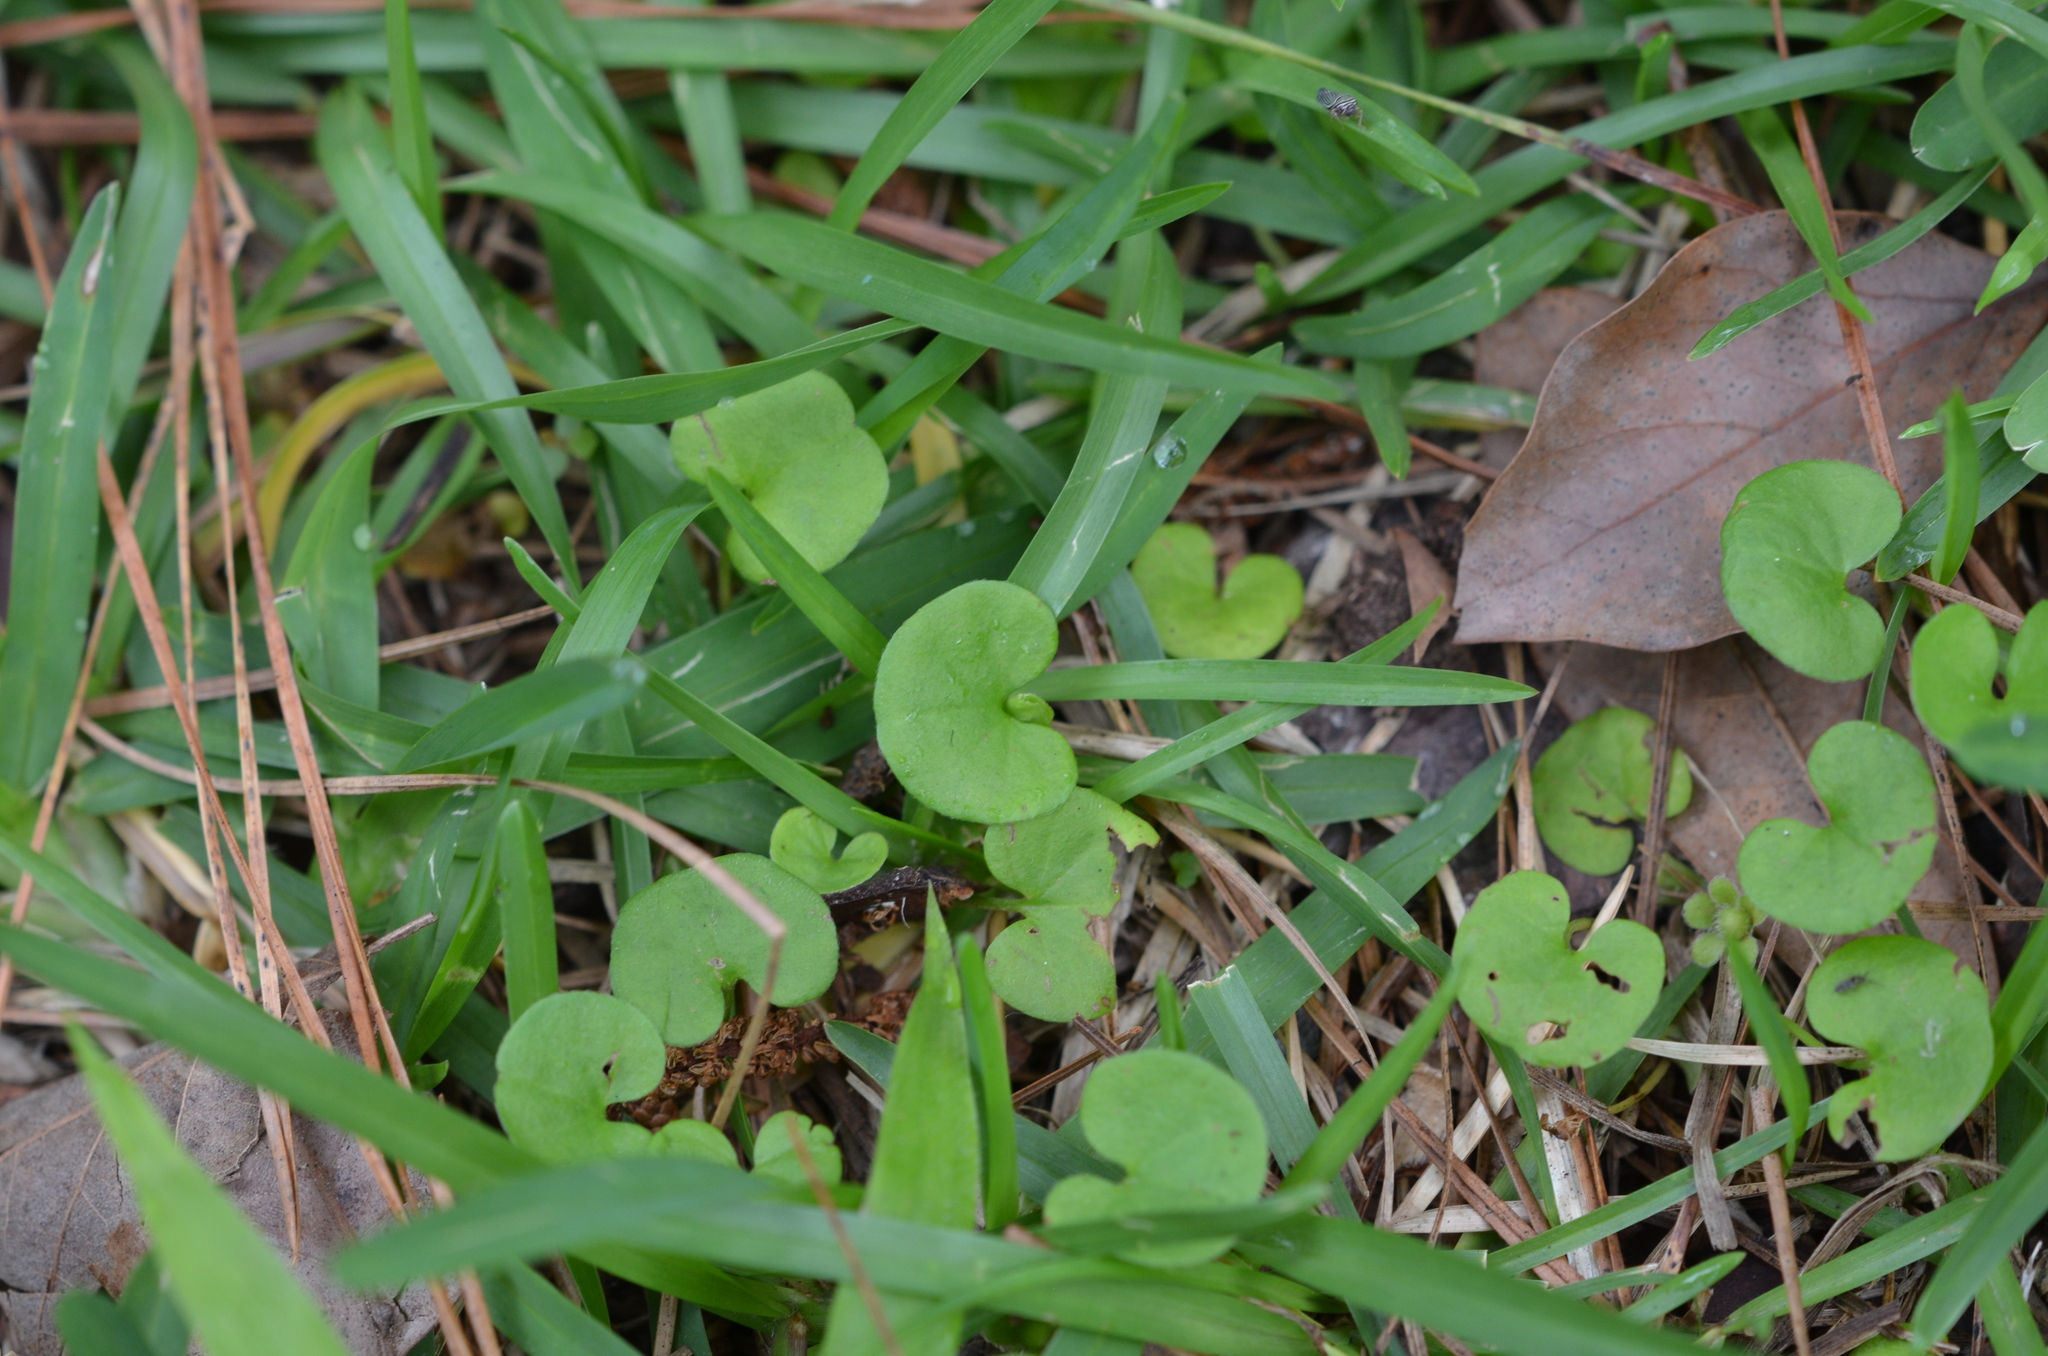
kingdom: Plantae
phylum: Tracheophyta
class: Magnoliopsida
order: Solanales
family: Convolvulaceae
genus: Dichondra
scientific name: Dichondra carolinensis
